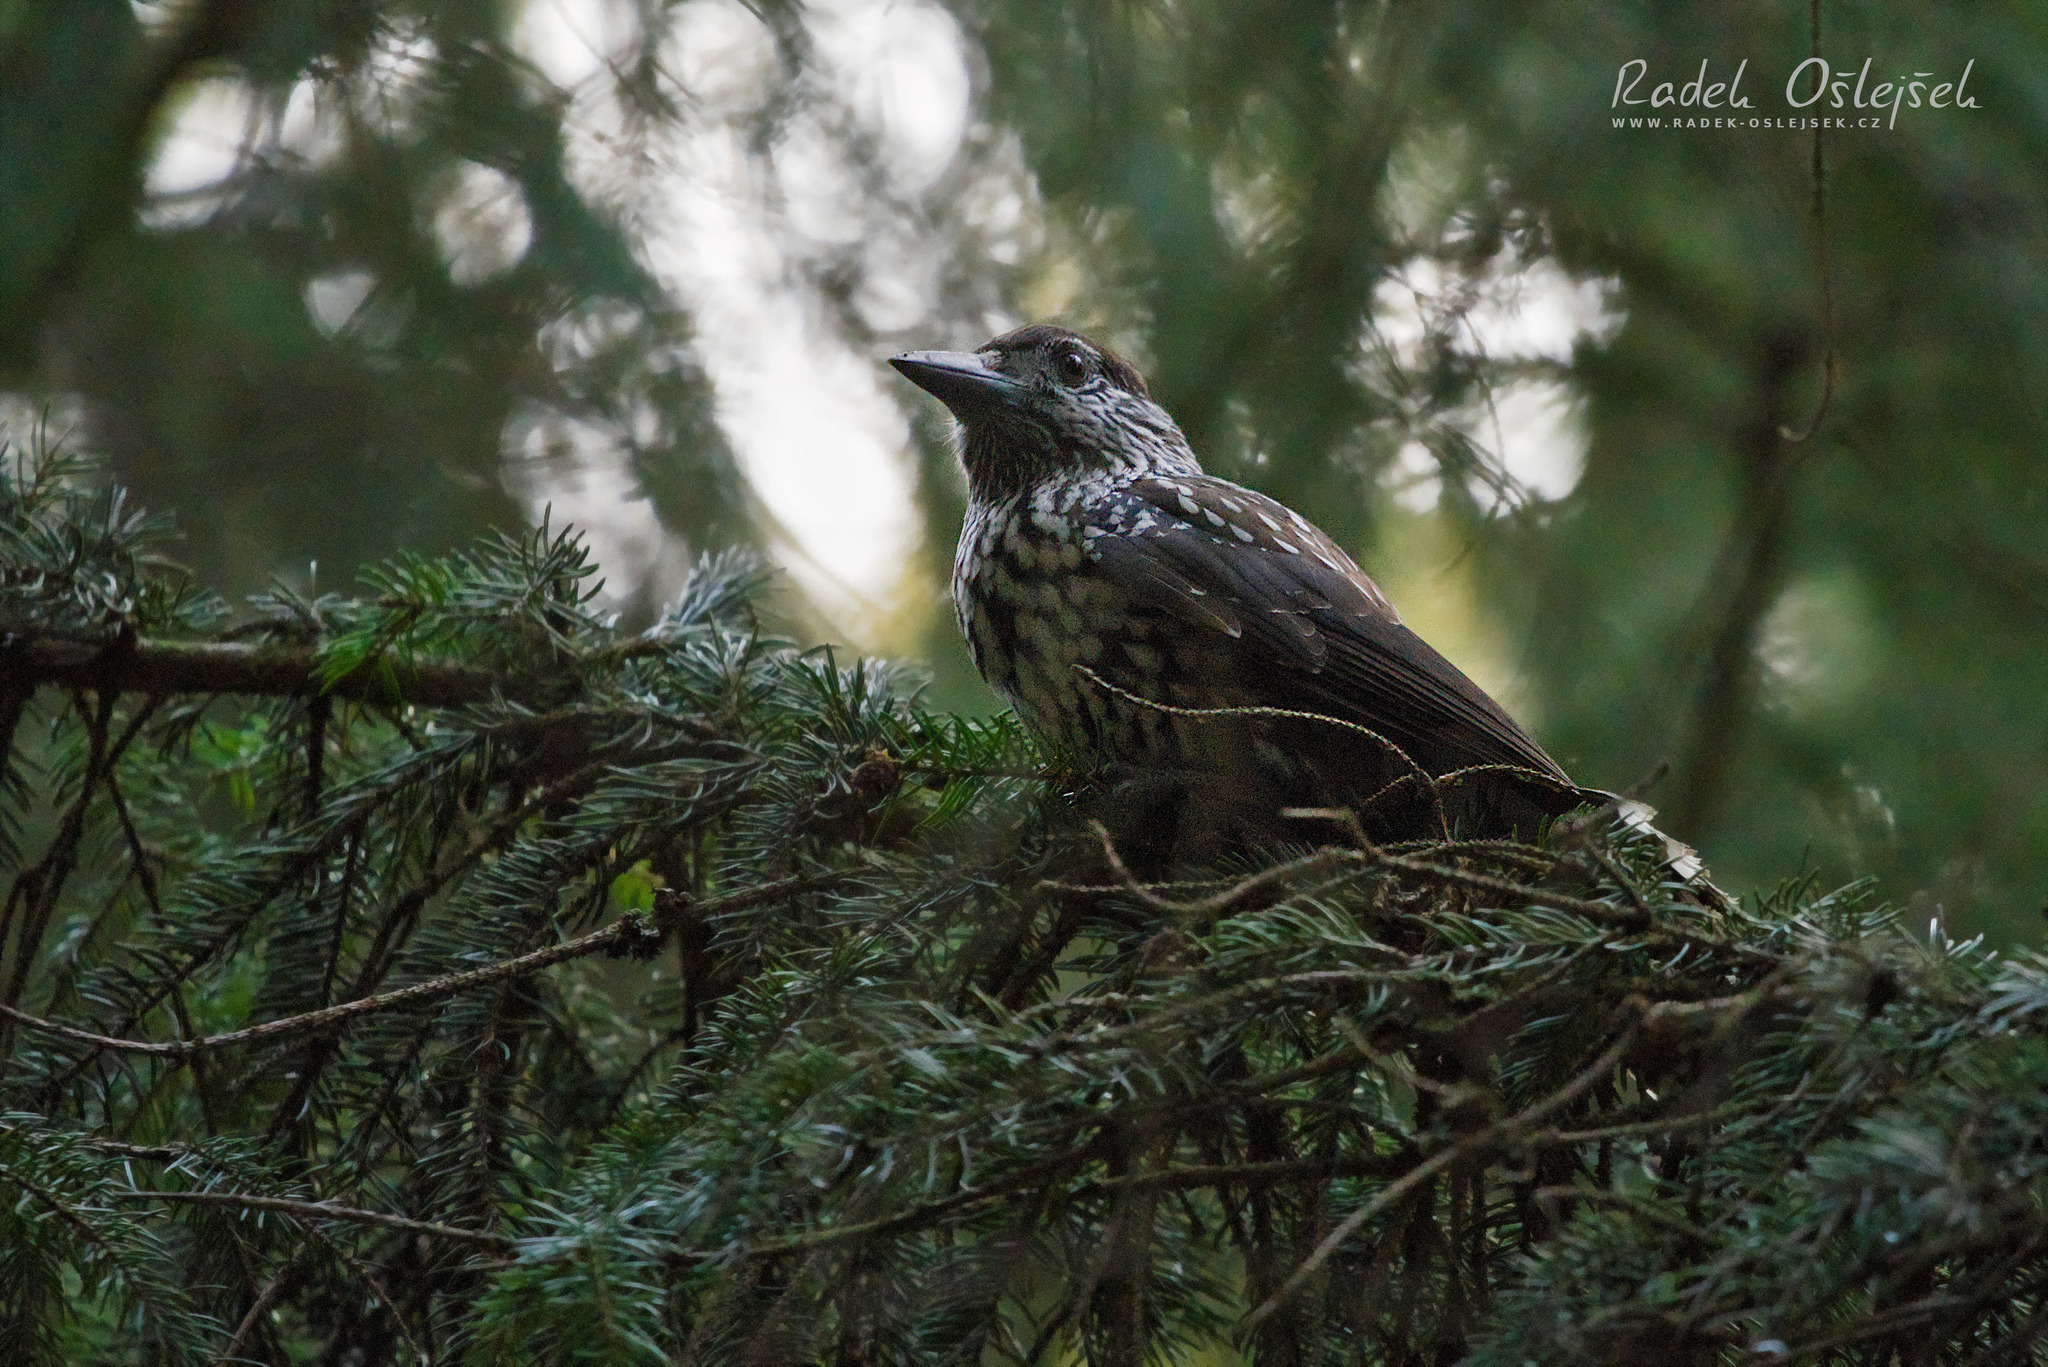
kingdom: Animalia
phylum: Chordata
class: Aves
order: Passeriformes
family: Corvidae
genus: Nucifraga
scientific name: Nucifraga caryocatactes
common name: Spotted nutcracker
